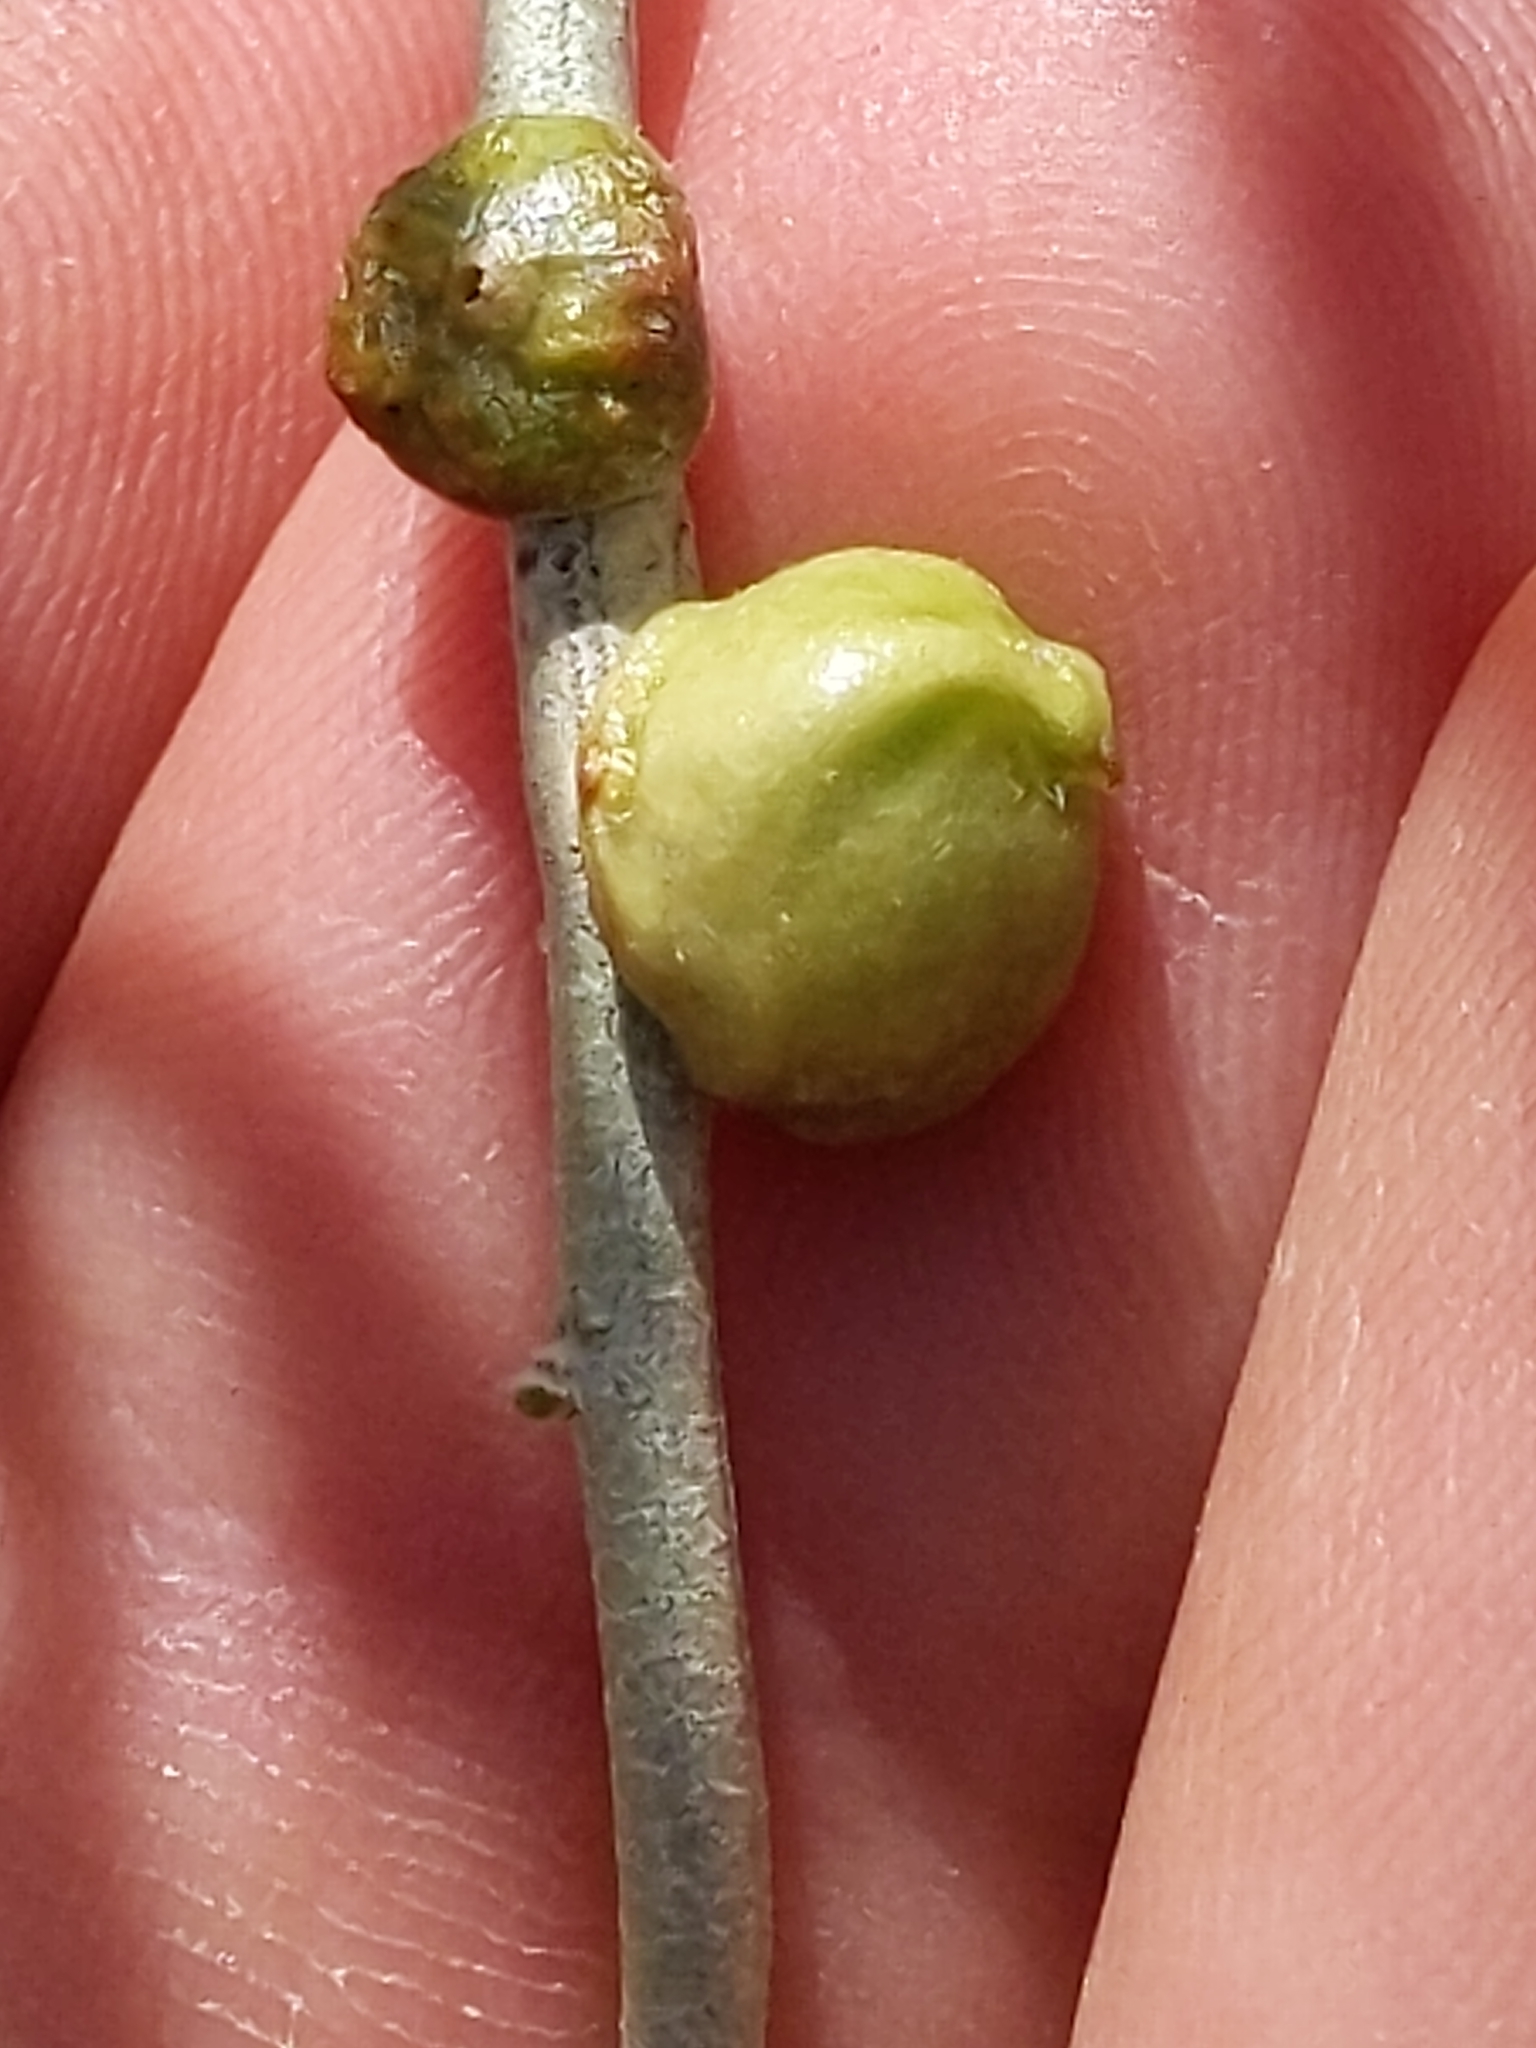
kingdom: Animalia
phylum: Arthropoda
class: Insecta
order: Diptera
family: Cecidomyiidae
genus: Rhopalomyia
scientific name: Rhopalomyia glutinosa
